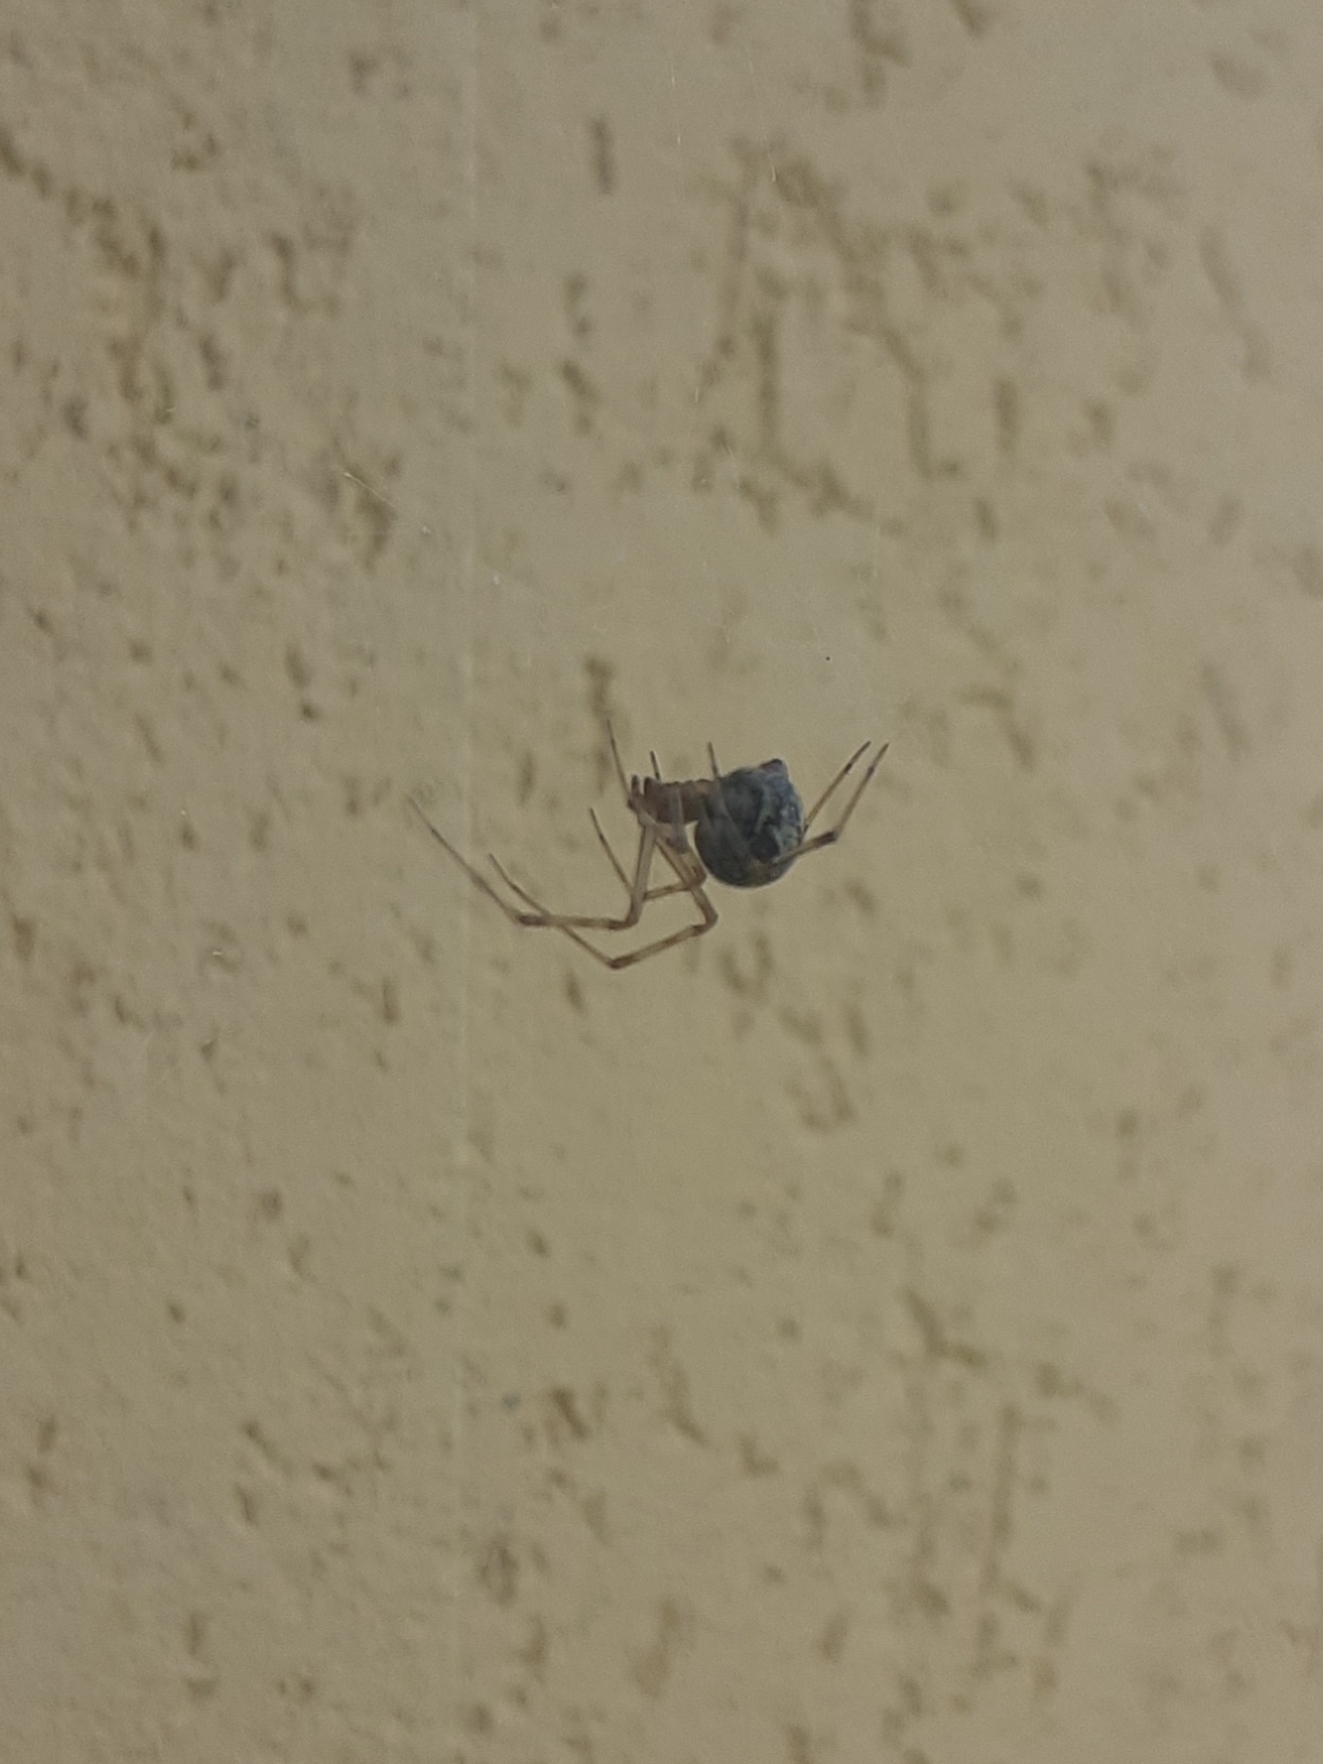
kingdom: Animalia
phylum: Arthropoda
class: Arachnida
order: Araneae
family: Theridiidae
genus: Parasteatoda
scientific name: Parasteatoda tepidariorum
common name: Common house spider
